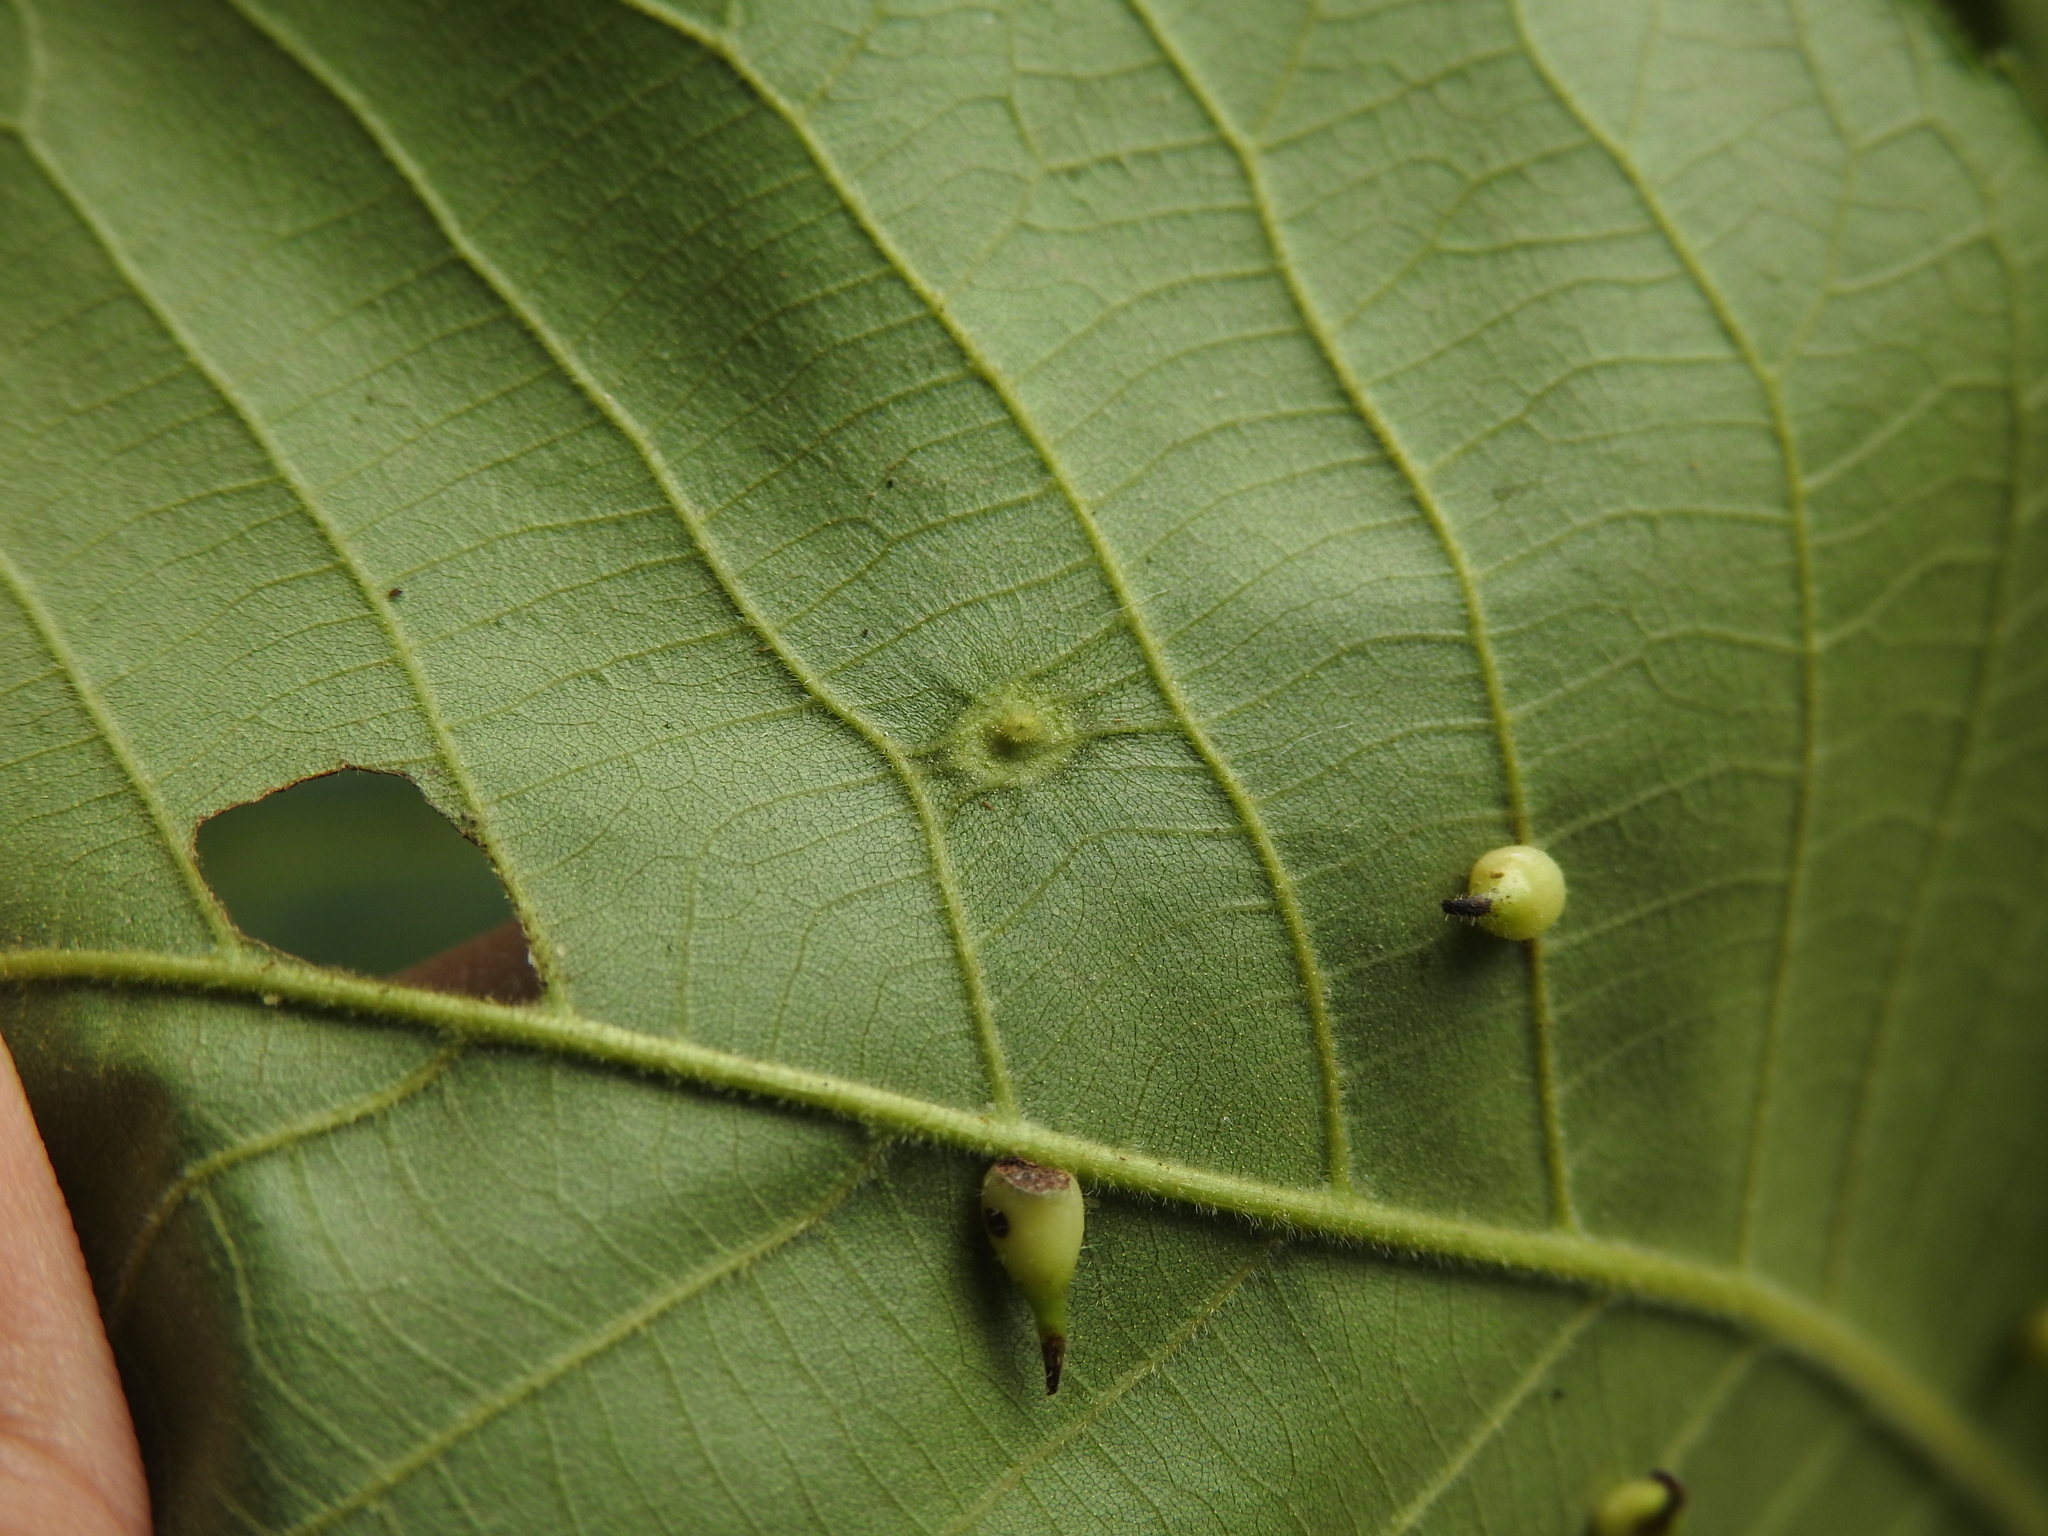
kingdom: Animalia
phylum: Arthropoda
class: Insecta
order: Diptera
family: Cecidomyiidae
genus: Caryomyia
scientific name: Caryomyia inclinata
